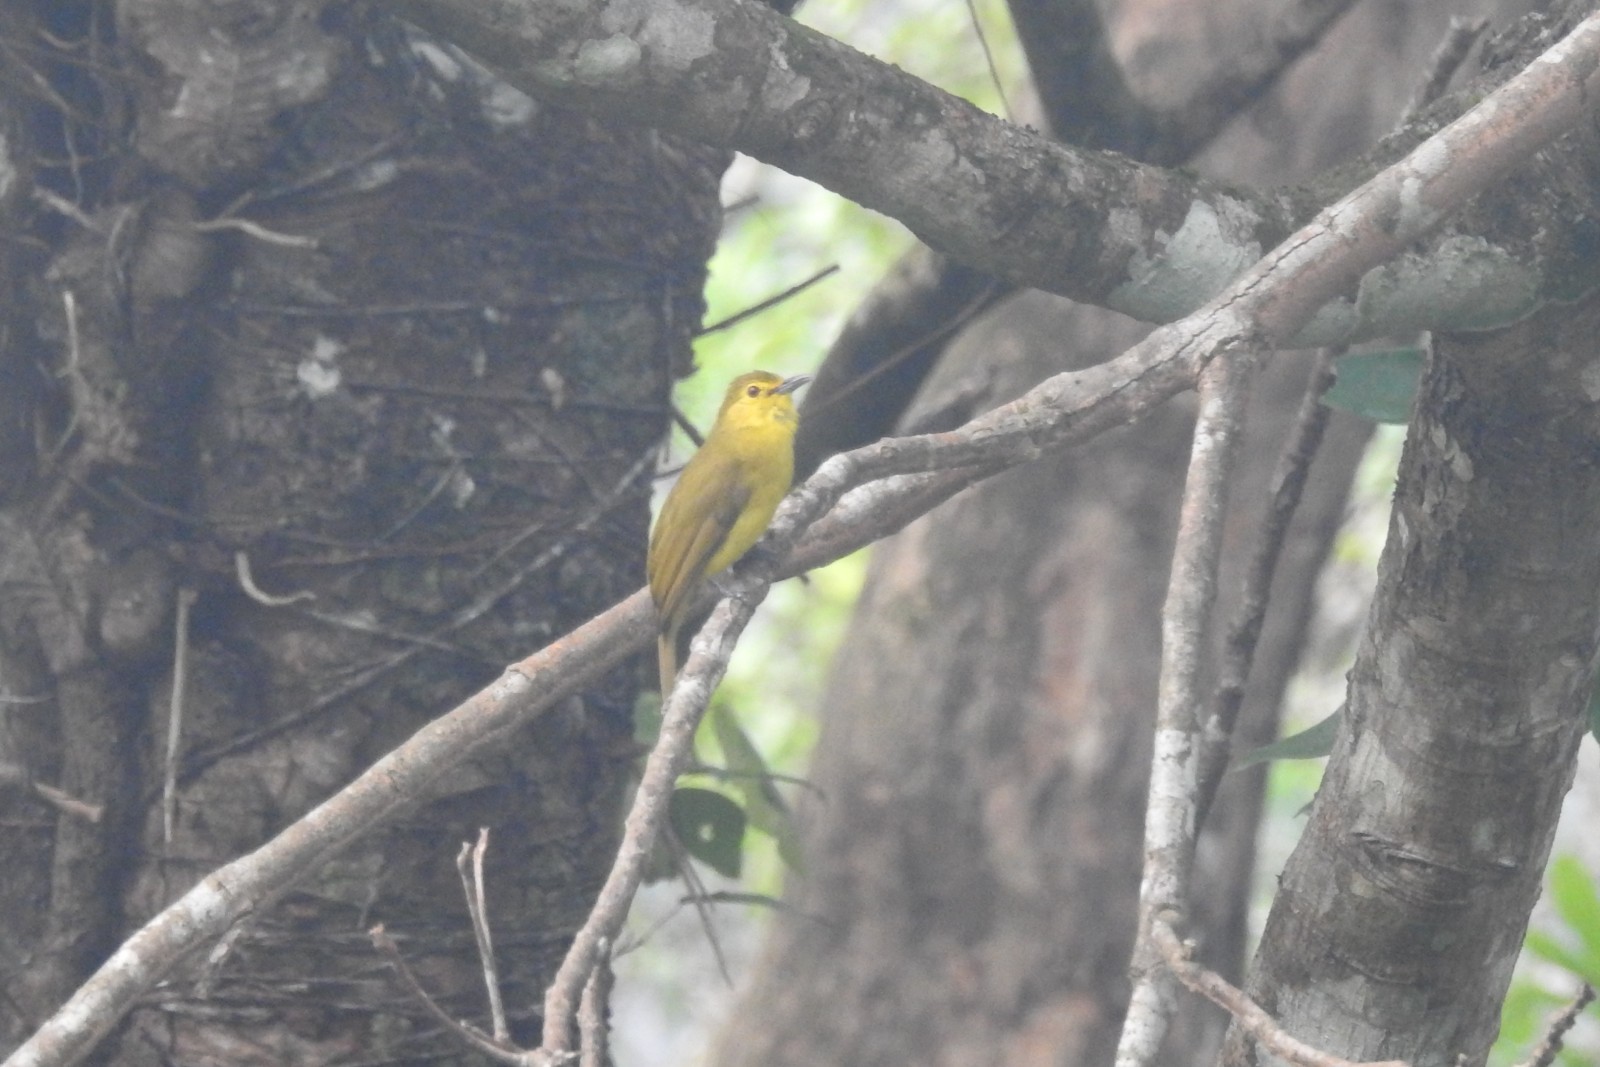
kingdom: Animalia
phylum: Chordata
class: Aves
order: Passeriformes
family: Pycnonotidae
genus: Acritillas
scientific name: Acritillas indica
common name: Yellow-browed bulbul
